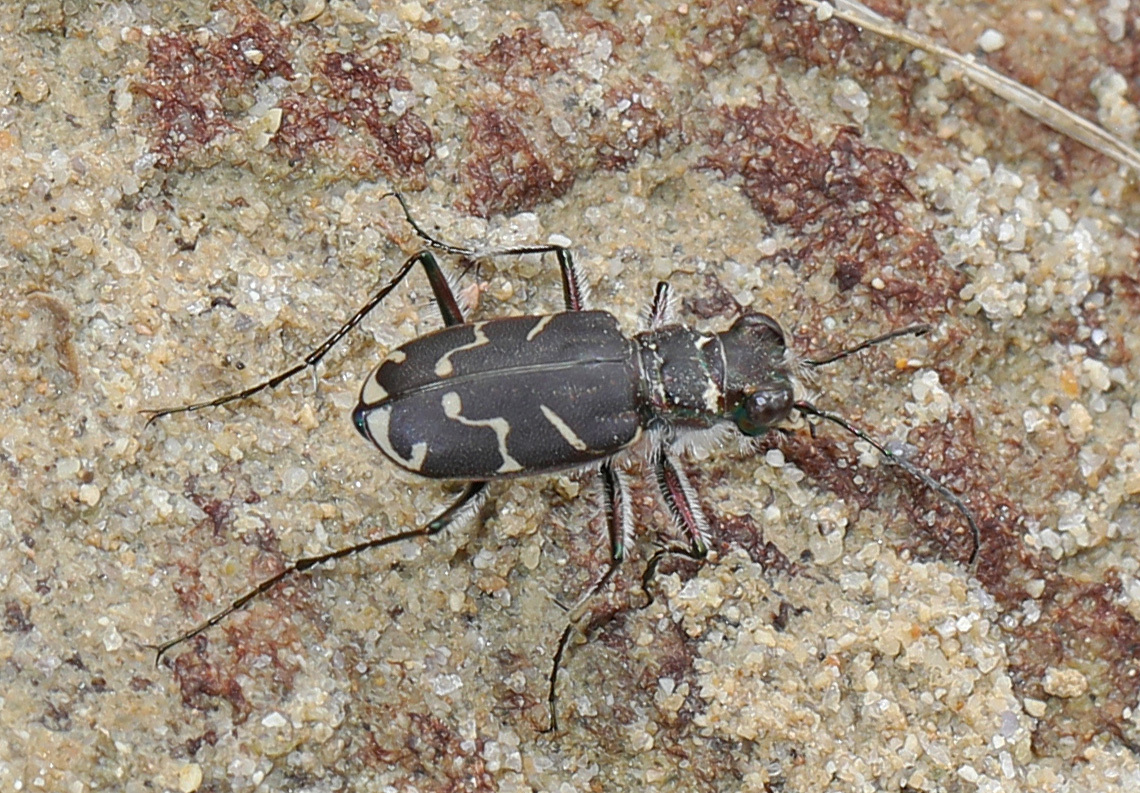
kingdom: Animalia
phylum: Arthropoda
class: Insecta
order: Coleoptera
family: Carabidae
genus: Cicindela
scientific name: Cicindela tranquebarica
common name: Oblique-lined tiger beetle
